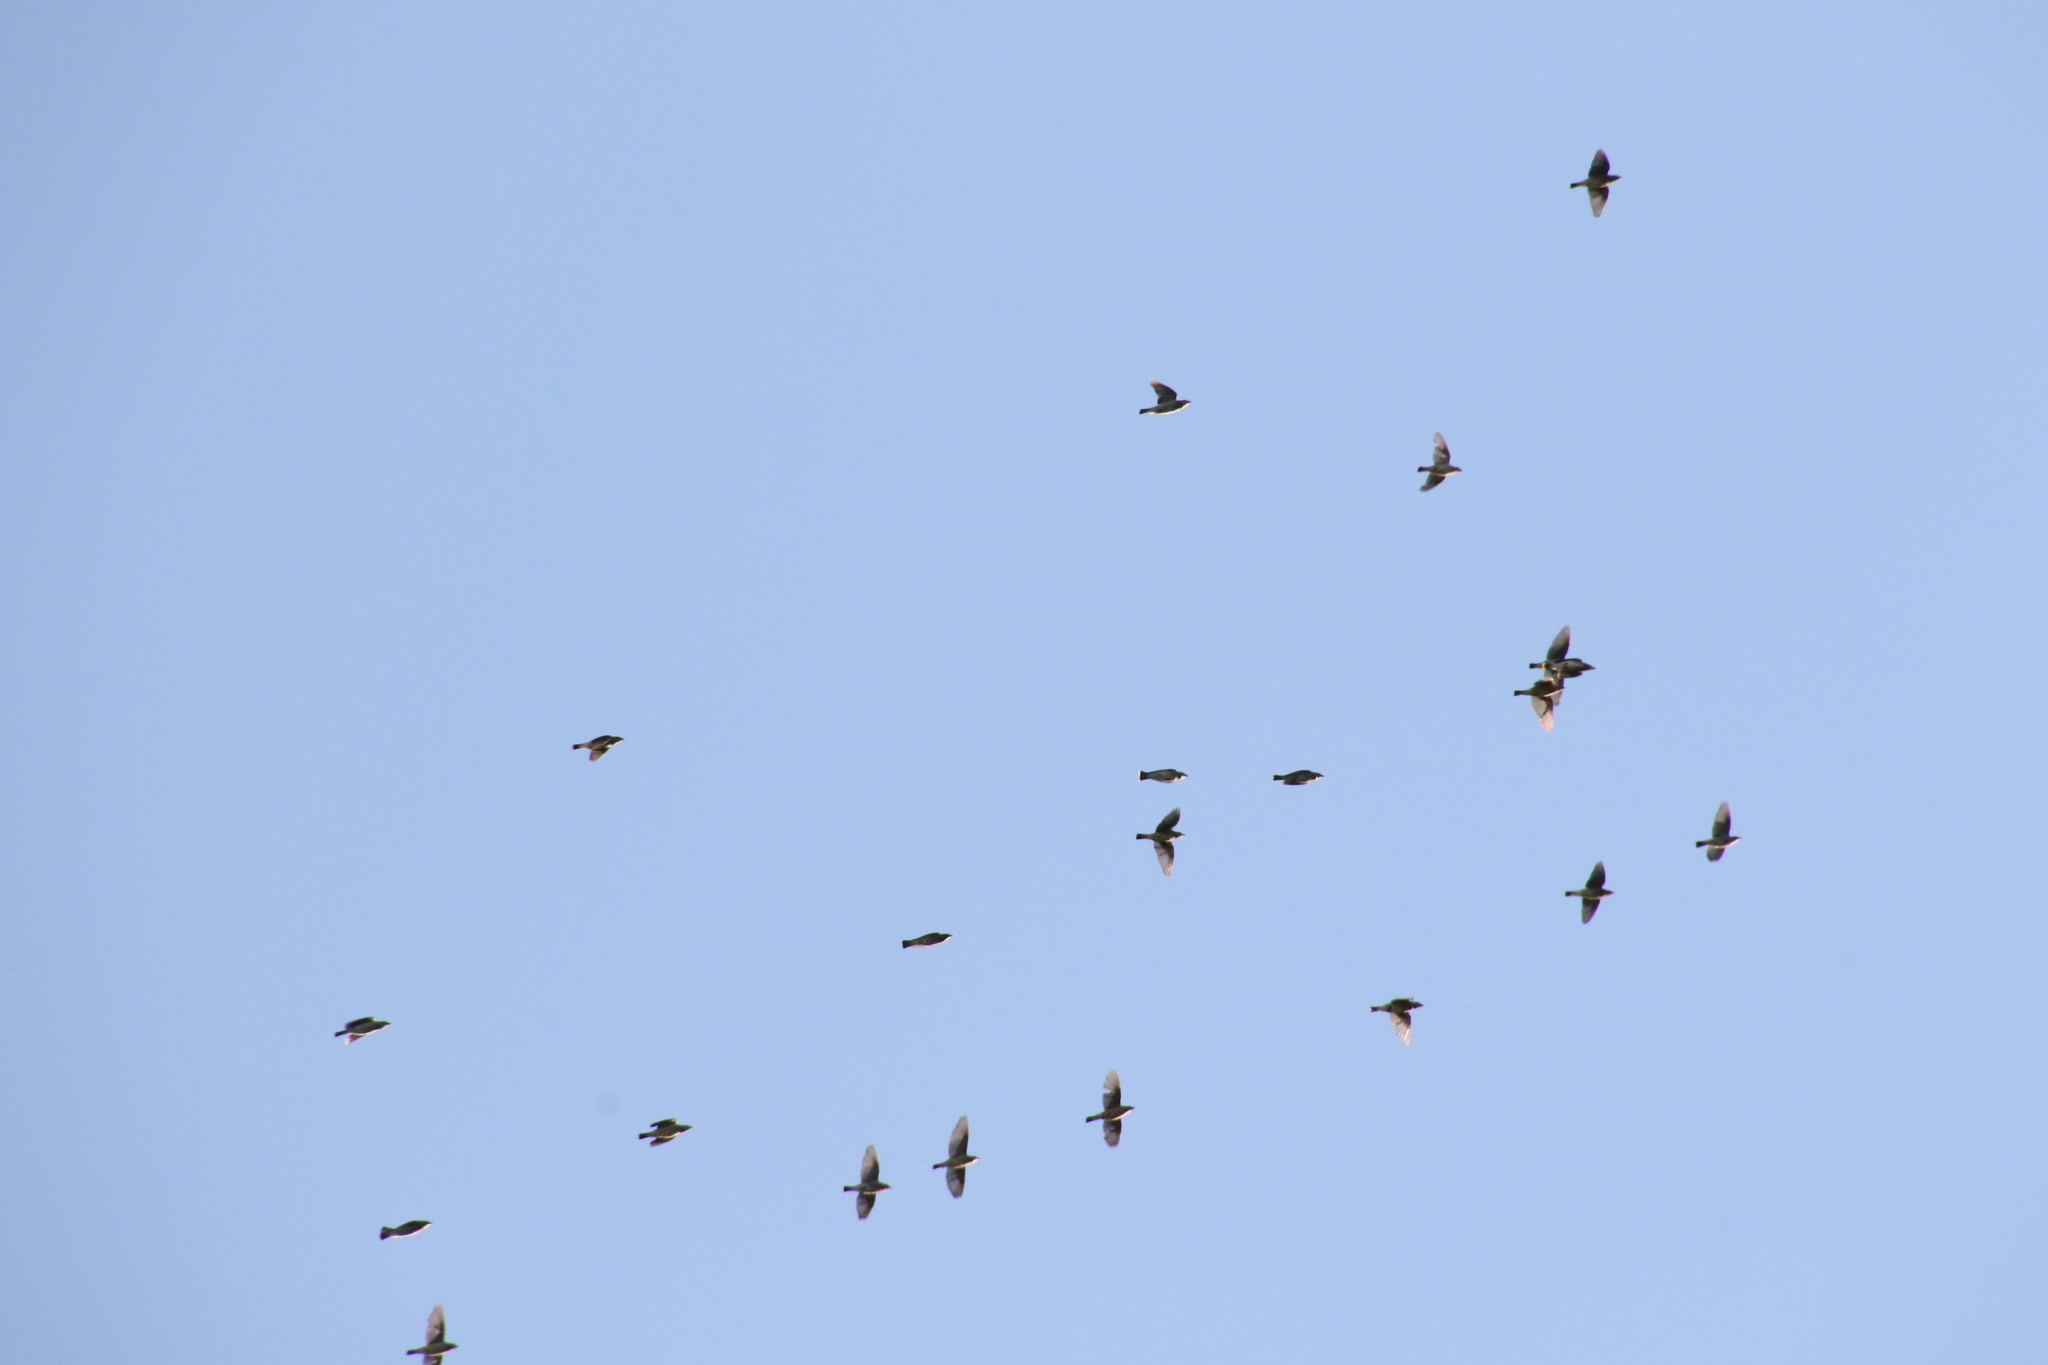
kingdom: Animalia
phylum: Chordata
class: Aves
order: Passeriformes
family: Bombycillidae
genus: Bombycilla
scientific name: Bombycilla cedrorum
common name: Cedar waxwing
